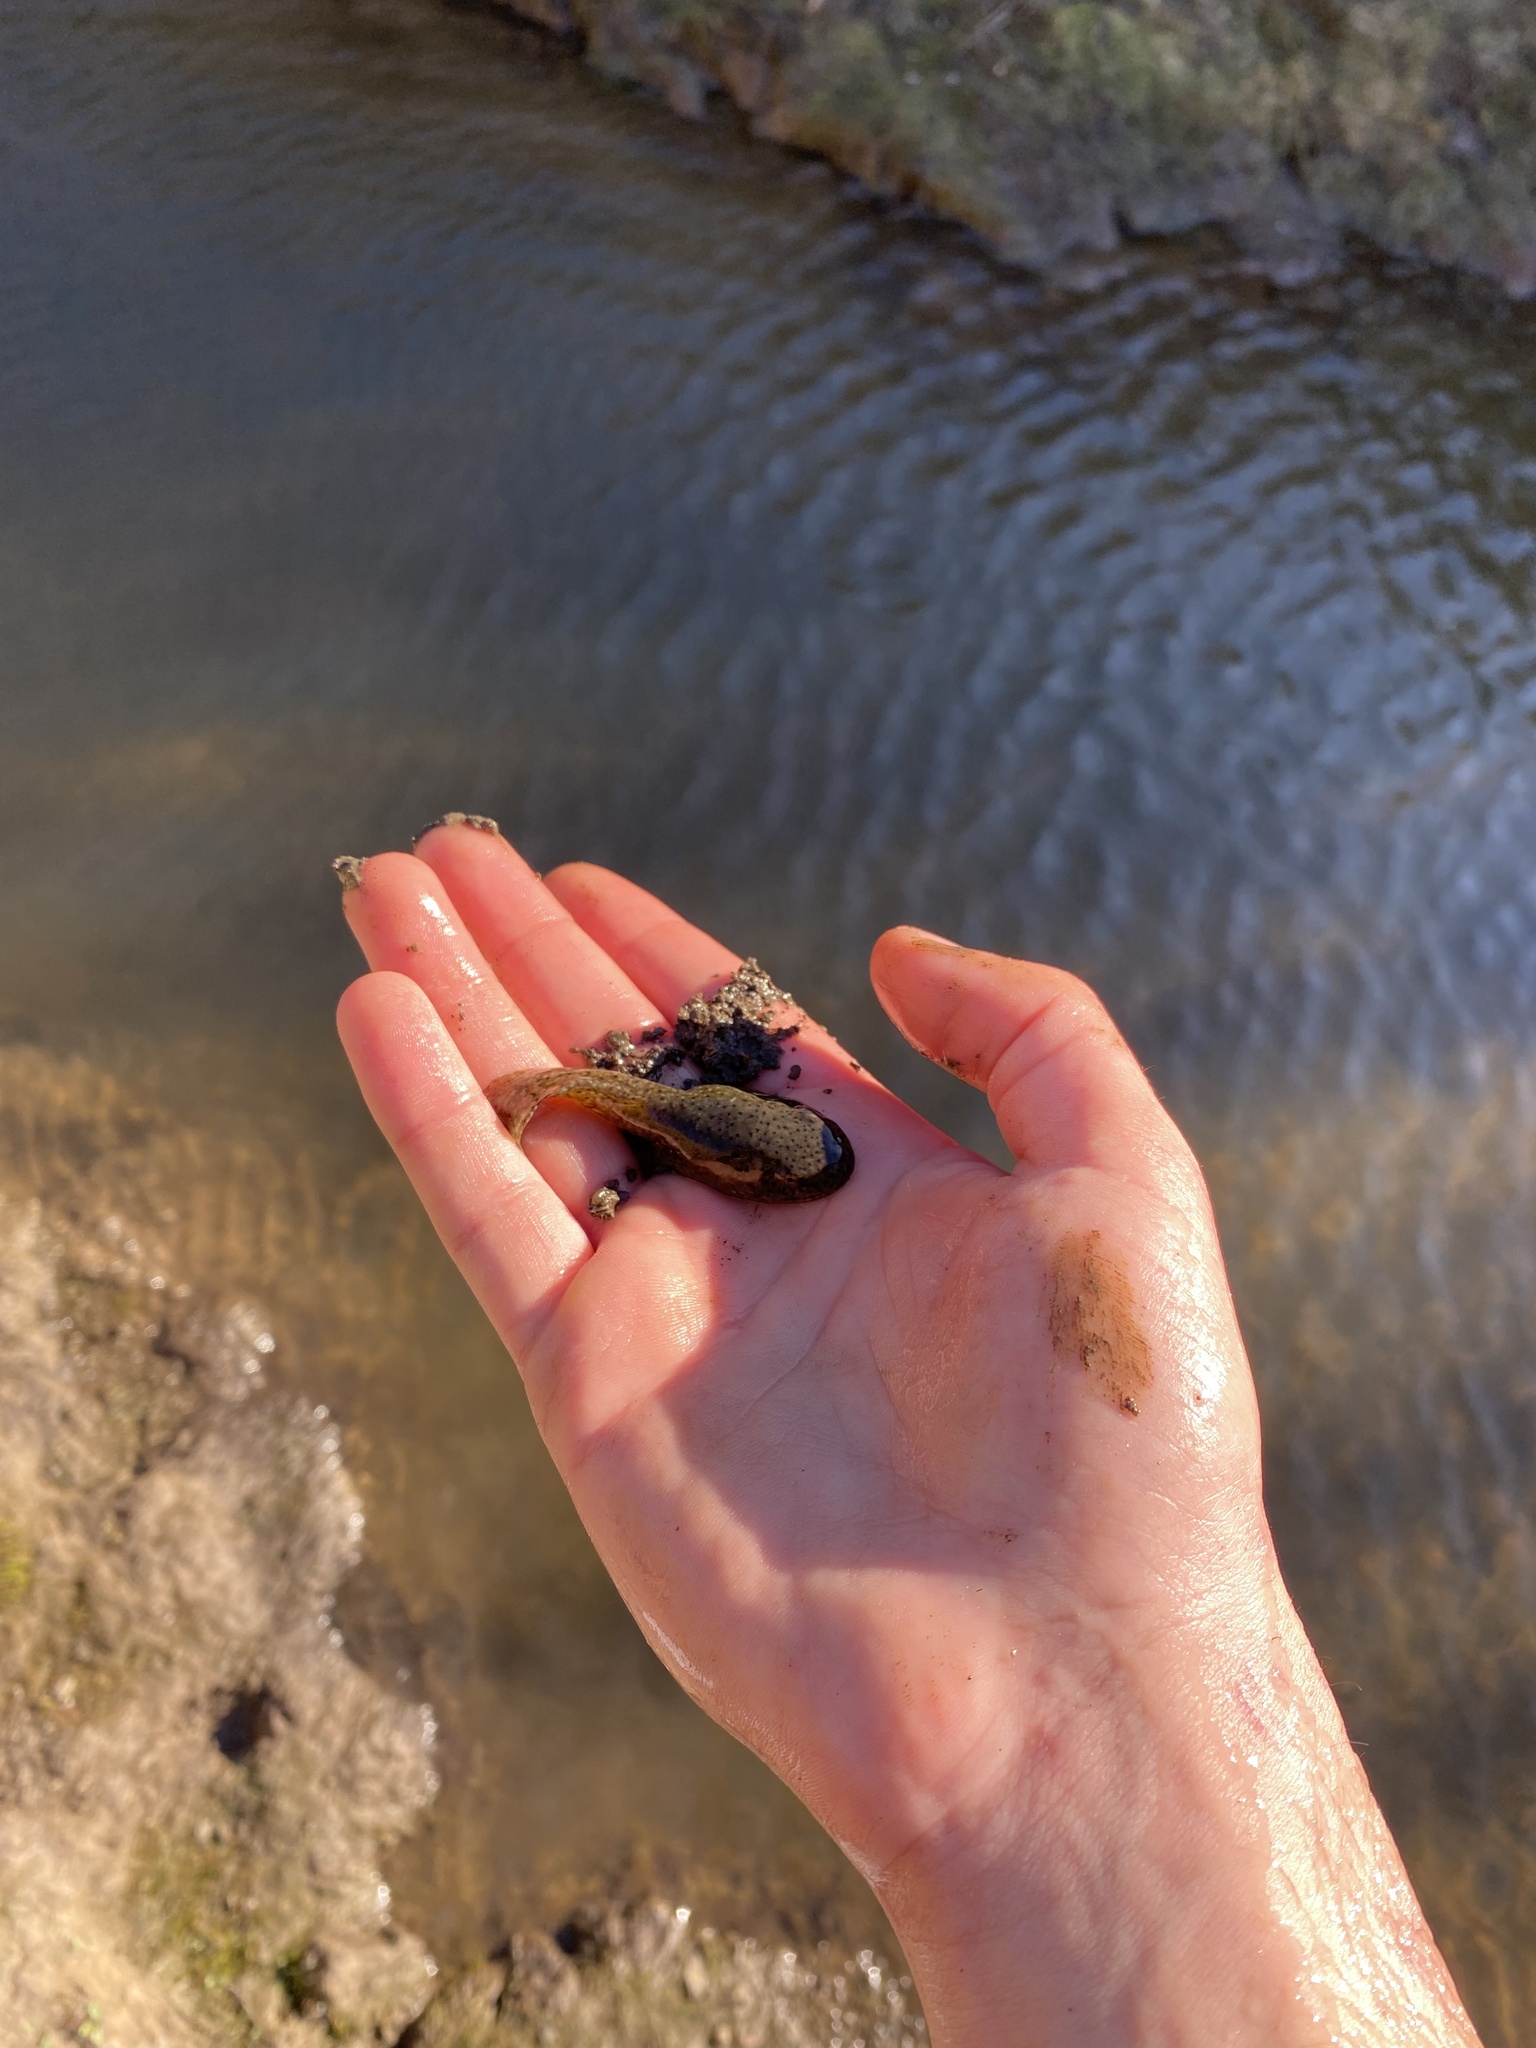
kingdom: Animalia
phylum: Chordata
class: Amphibia
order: Anura
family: Ranidae
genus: Lithobates
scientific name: Lithobates catesbeianus
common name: American bullfrog
